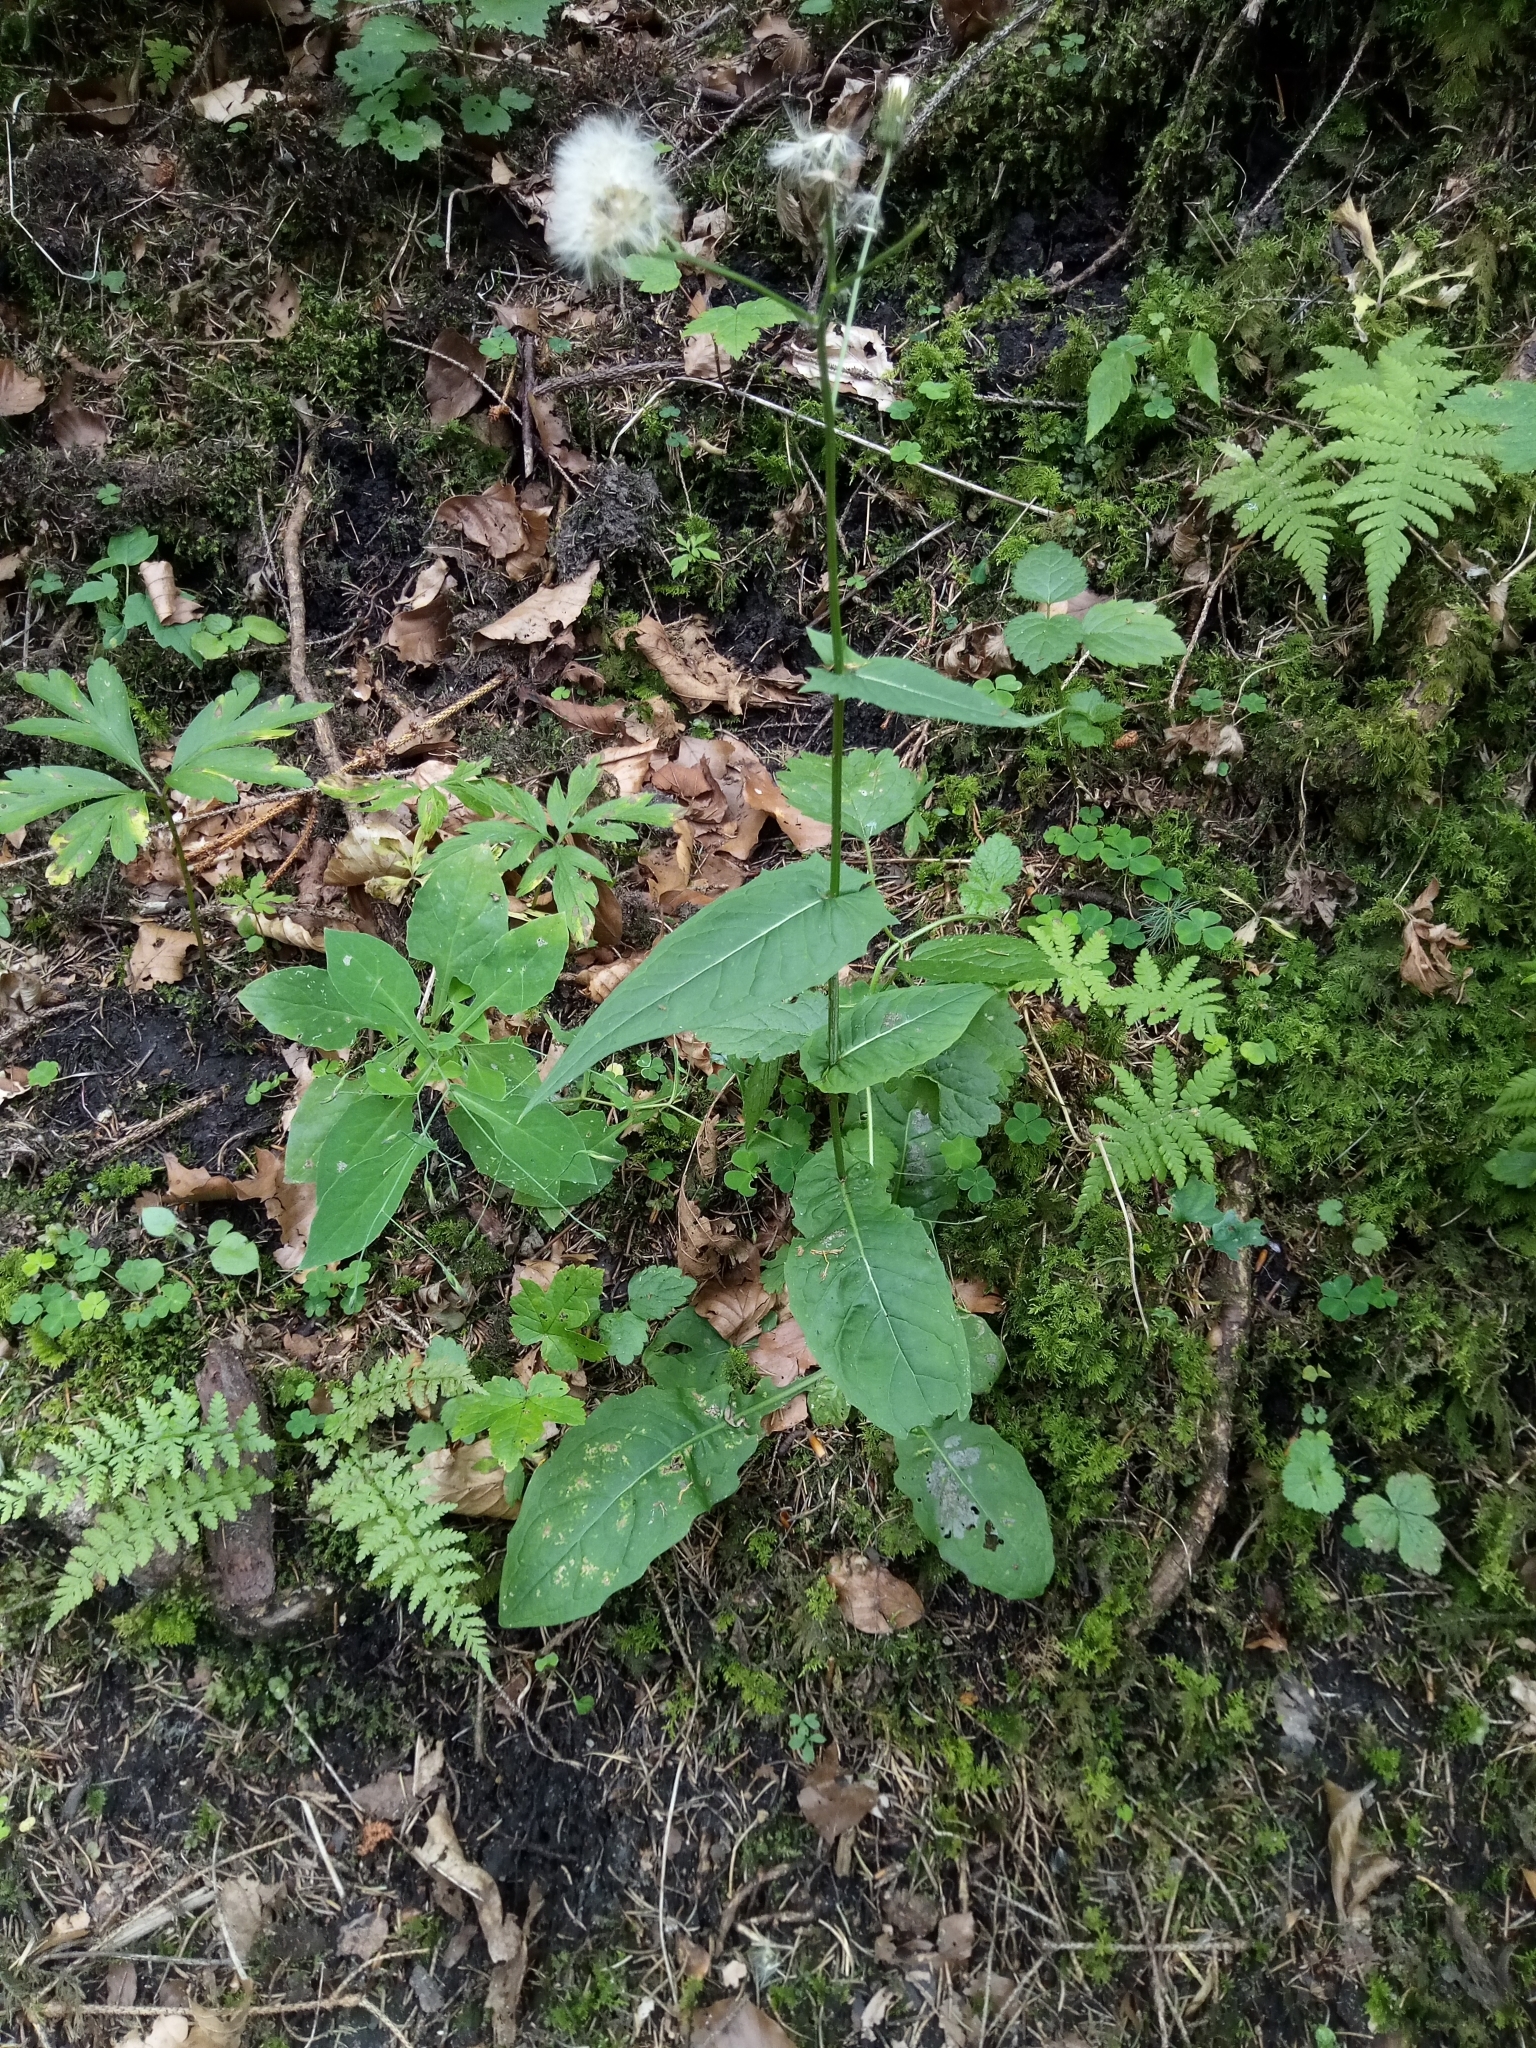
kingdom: Plantae
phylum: Tracheophyta
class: Magnoliopsida
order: Asterales
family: Asteraceae
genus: Crepis
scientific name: Crepis paludosa
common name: Marsh hawk's-beard
